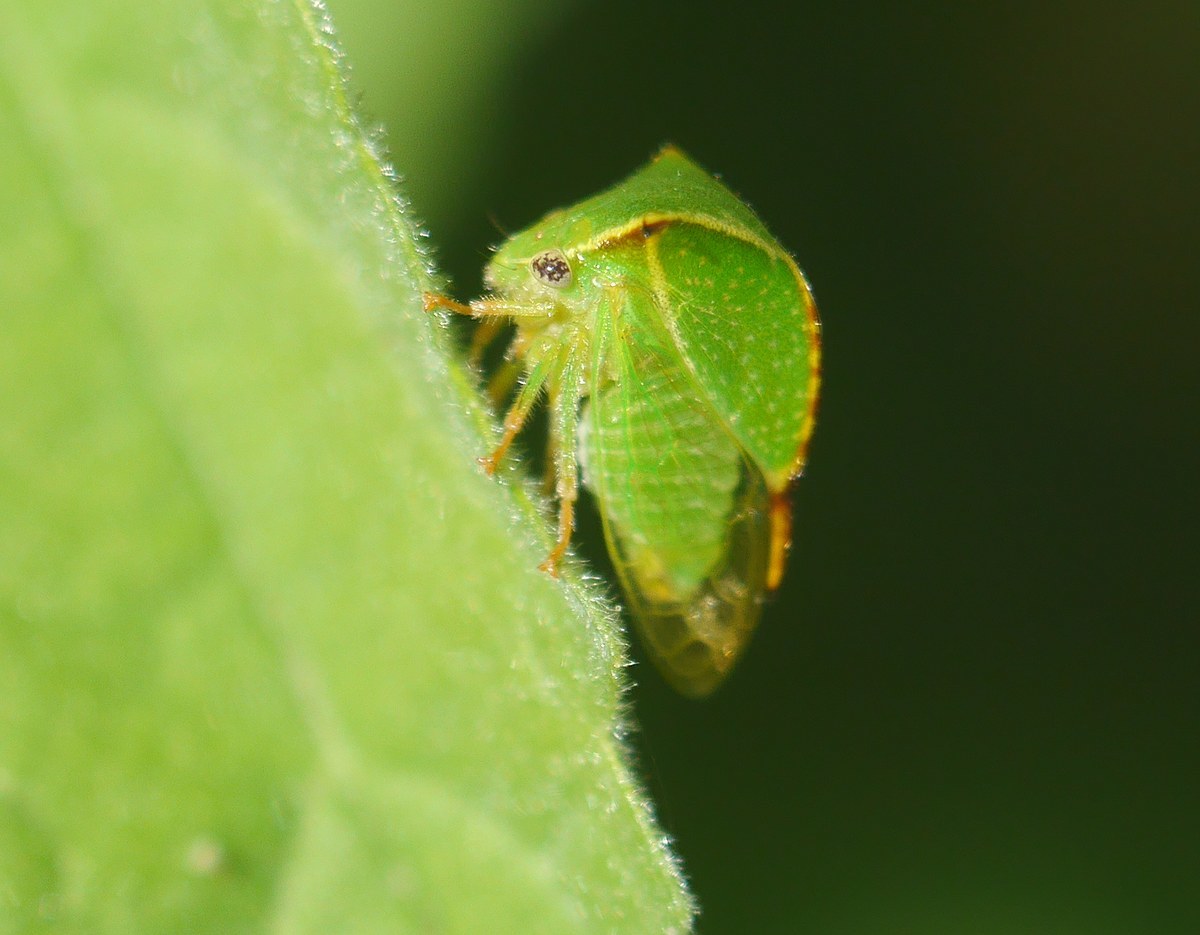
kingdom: Animalia
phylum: Arthropoda
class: Insecta
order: Hemiptera
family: Membracidae
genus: Stictocephala
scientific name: Stictocephala bisonia
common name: American buffalo treehopper
